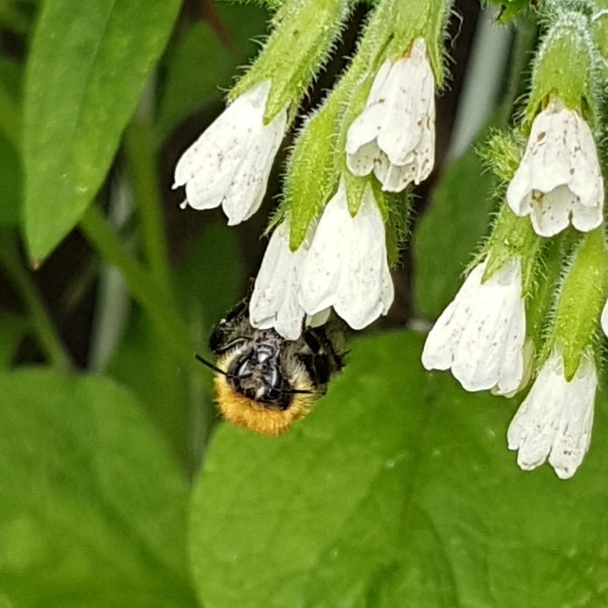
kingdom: Animalia
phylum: Arthropoda
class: Insecta
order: Hymenoptera
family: Apidae
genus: Bombus
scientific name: Bombus pascuorum
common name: Common carder bee
